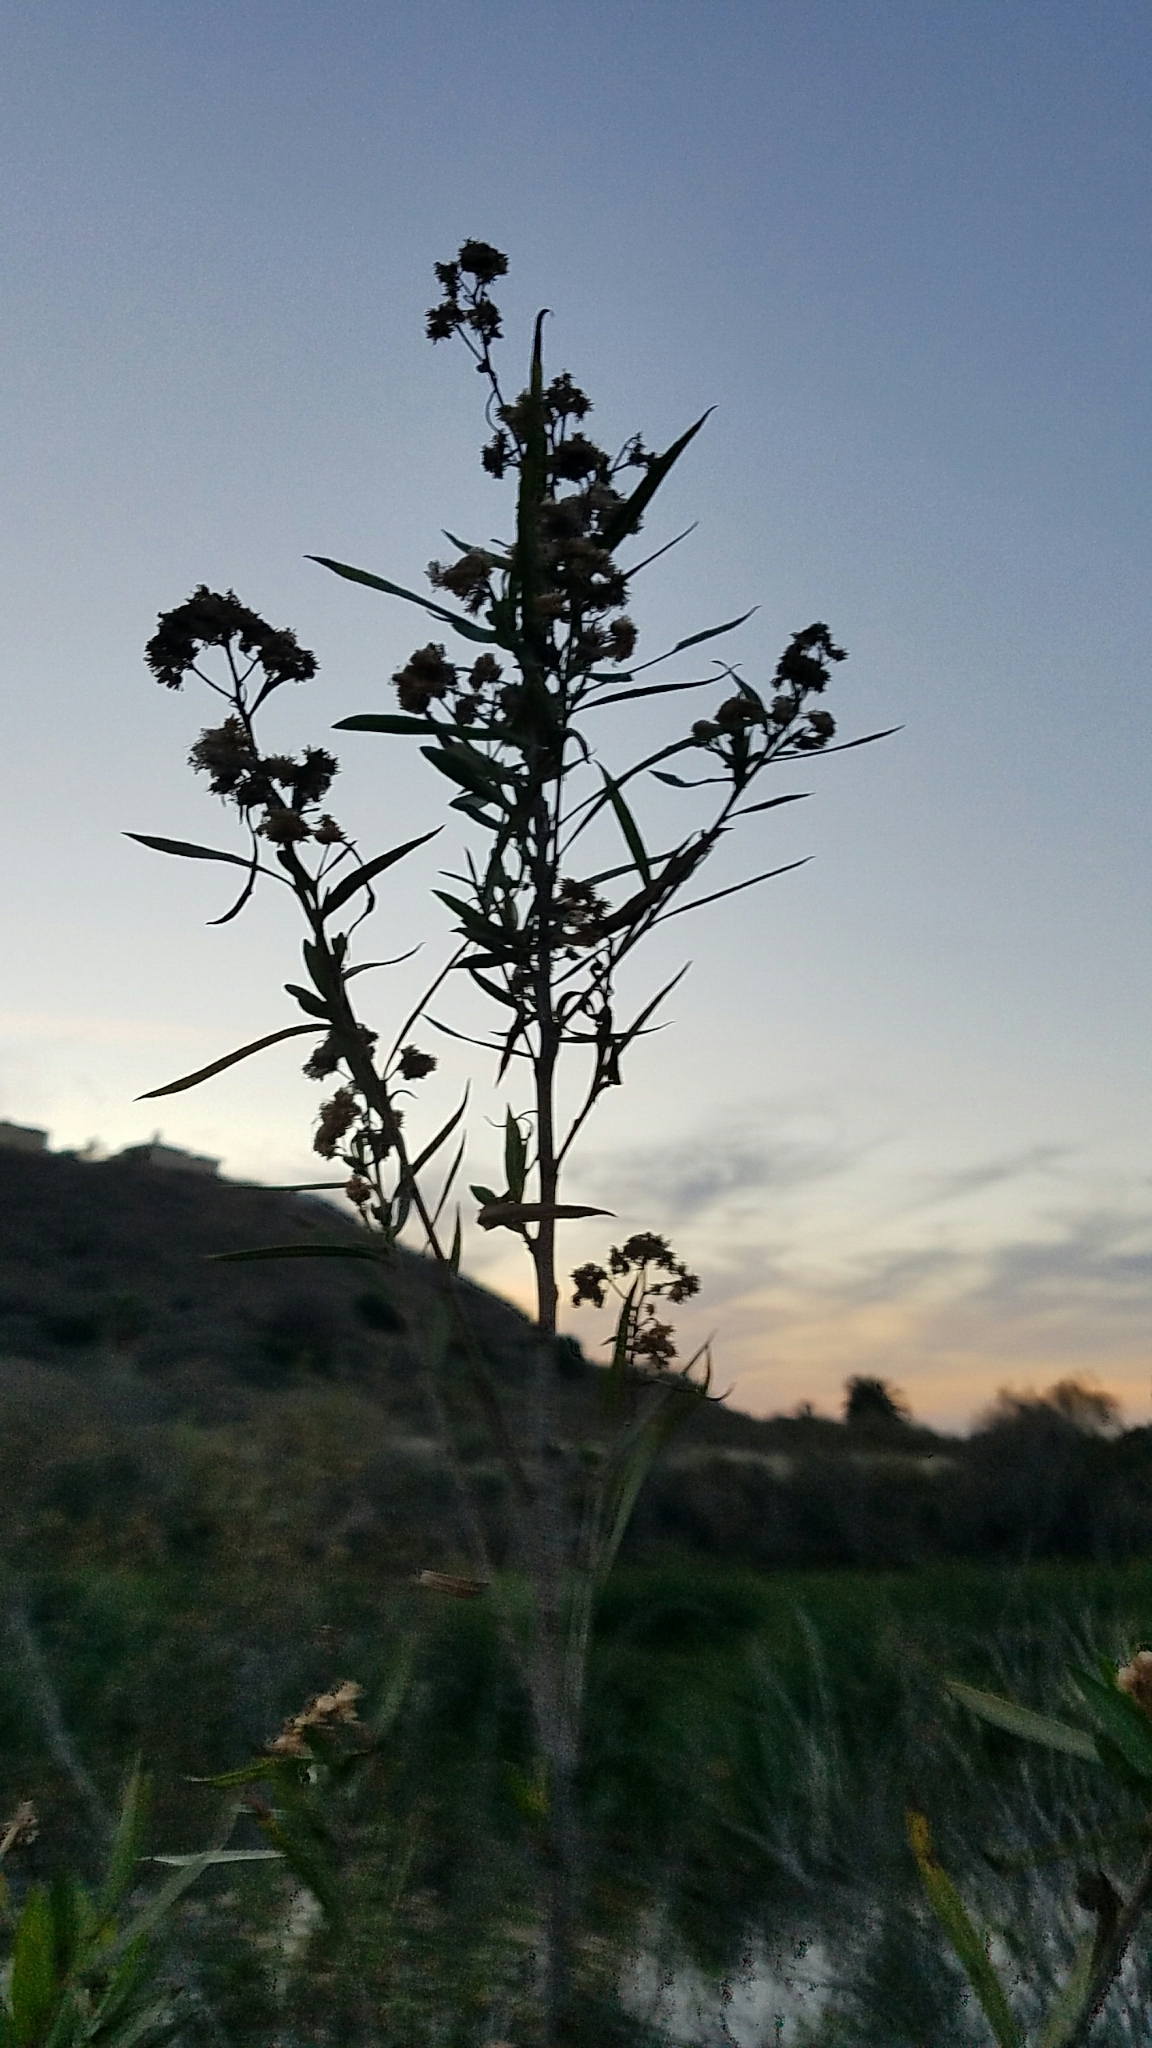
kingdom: Plantae
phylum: Tracheophyta
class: Magnoliopsida
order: Asterales
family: Asteraceae
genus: Baccharis
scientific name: Baccharis salicifolia
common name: Sticky baccharis
